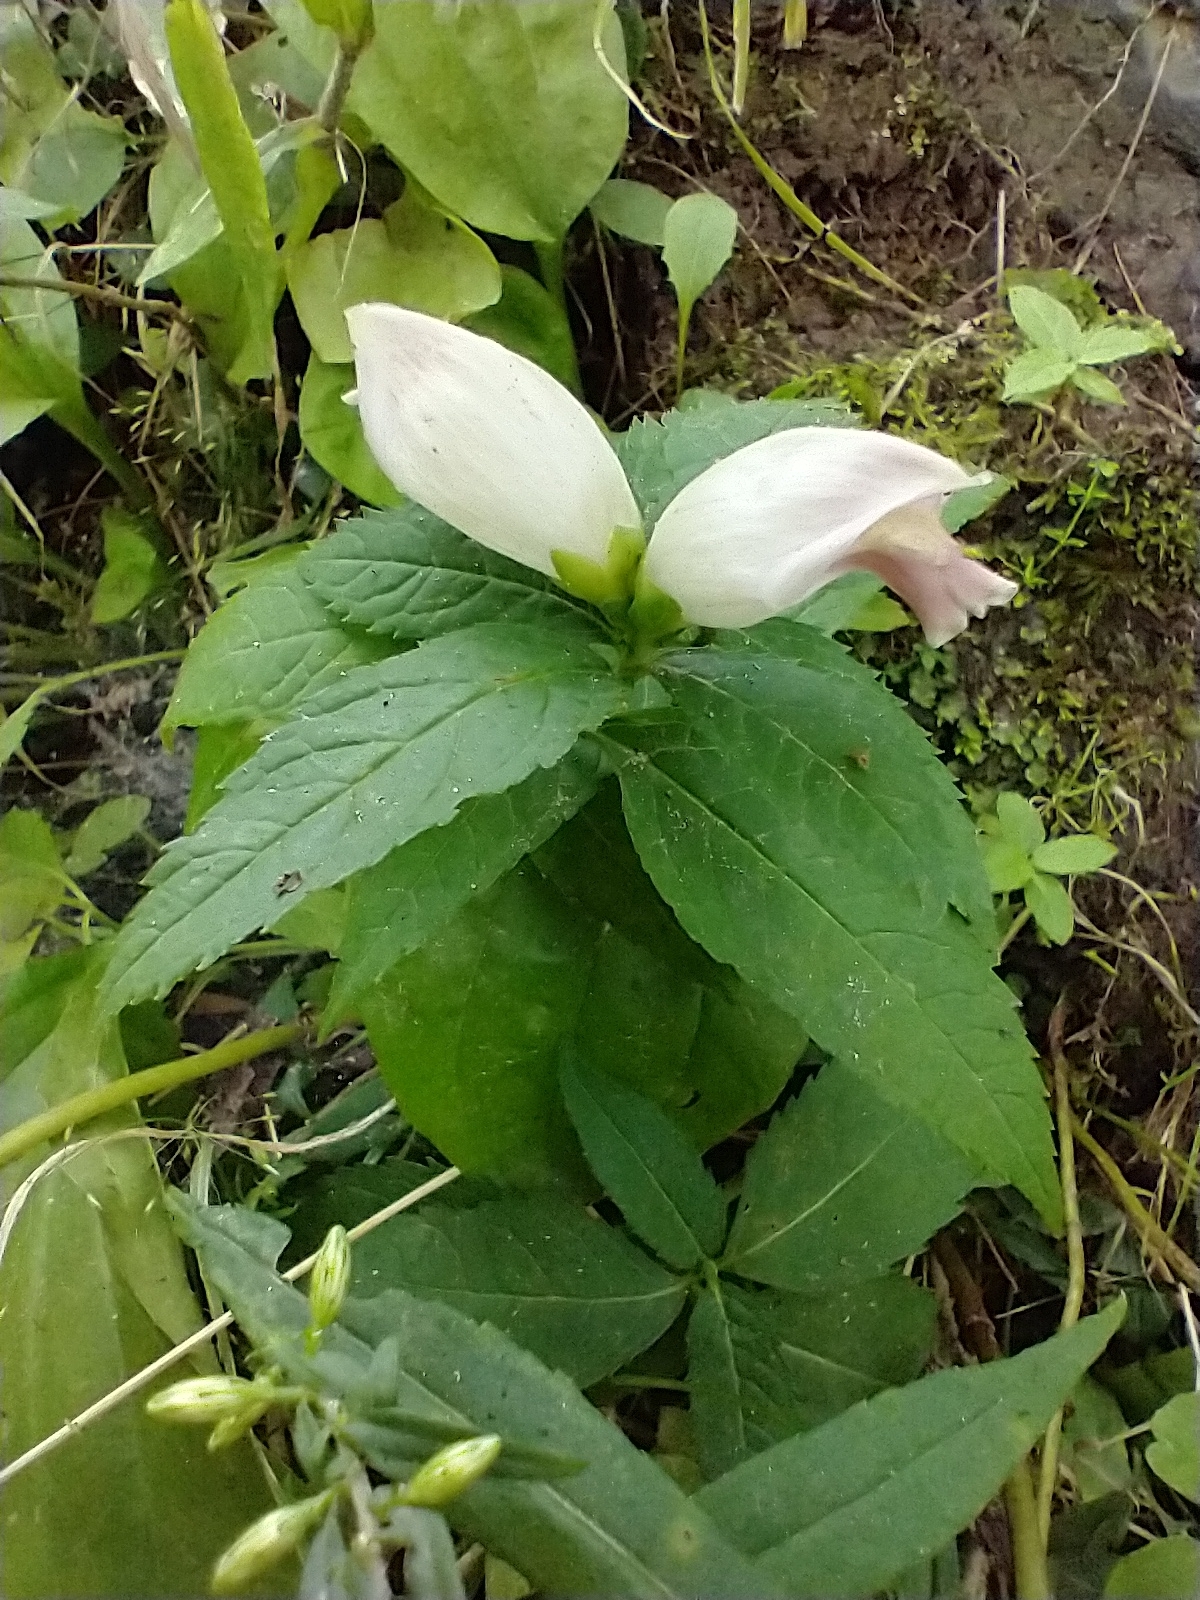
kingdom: Plantae
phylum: Tracheophyta
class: Magnoliopsida
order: Lamiales
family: Plantaginaceae
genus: Chelone
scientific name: Chelone glabra
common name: Snakehead
